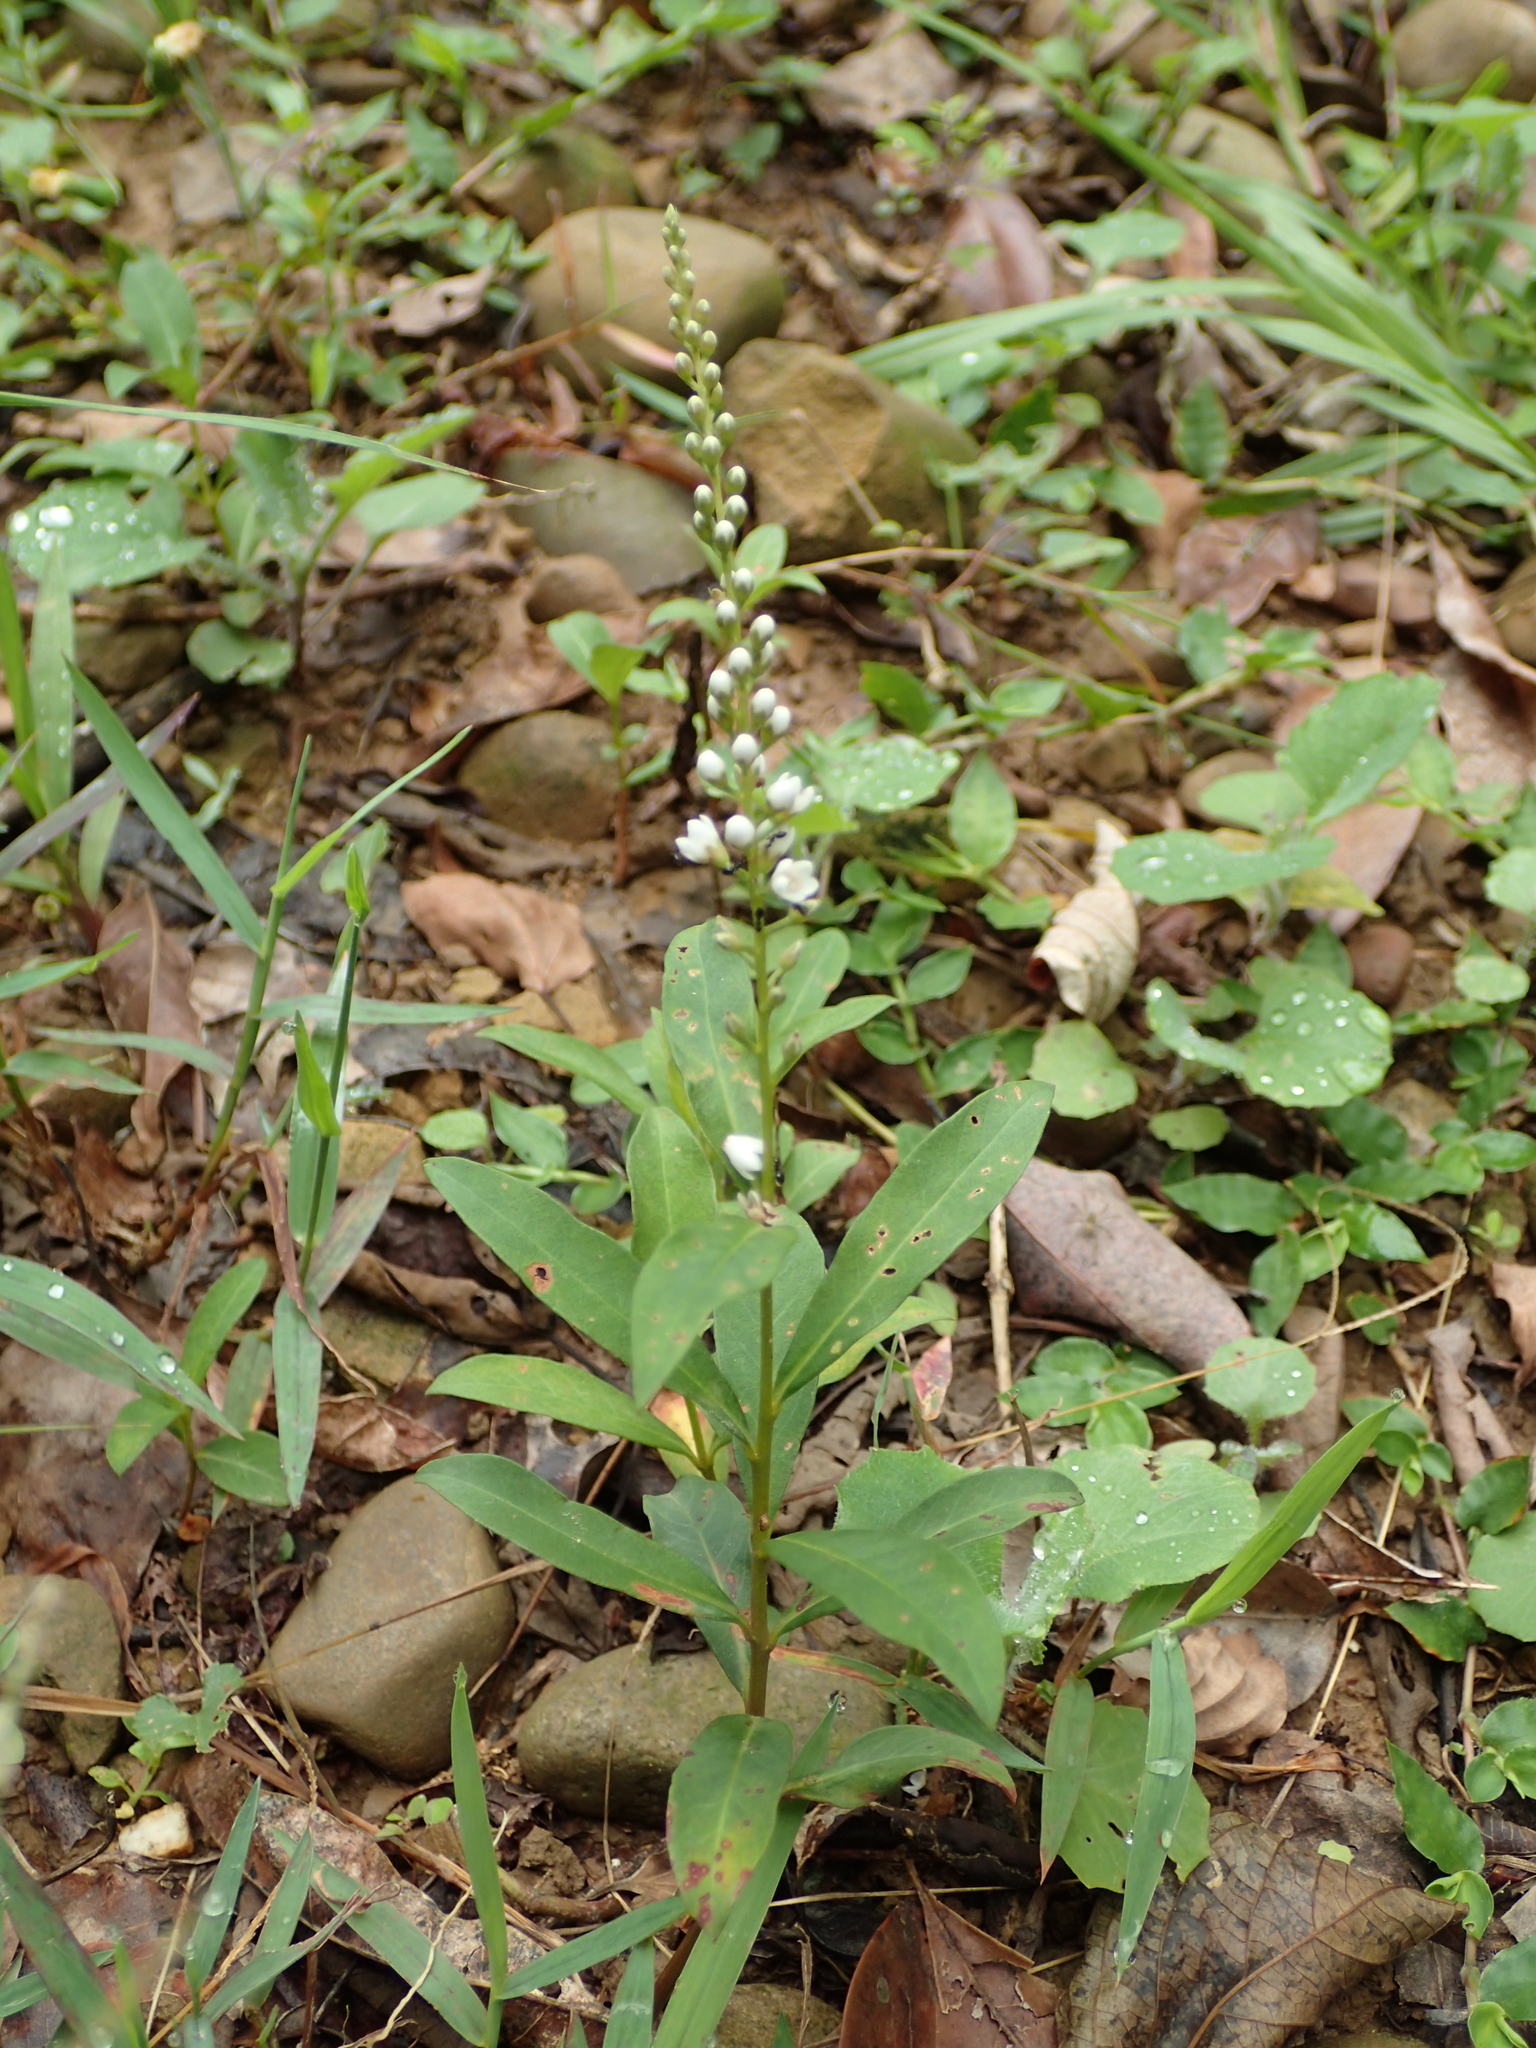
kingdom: Plantae
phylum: Tracheophyta
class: Magnoliopsida
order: Ericales
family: Primulaceae
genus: Lysimachia
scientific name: Lysimachia fortunei
